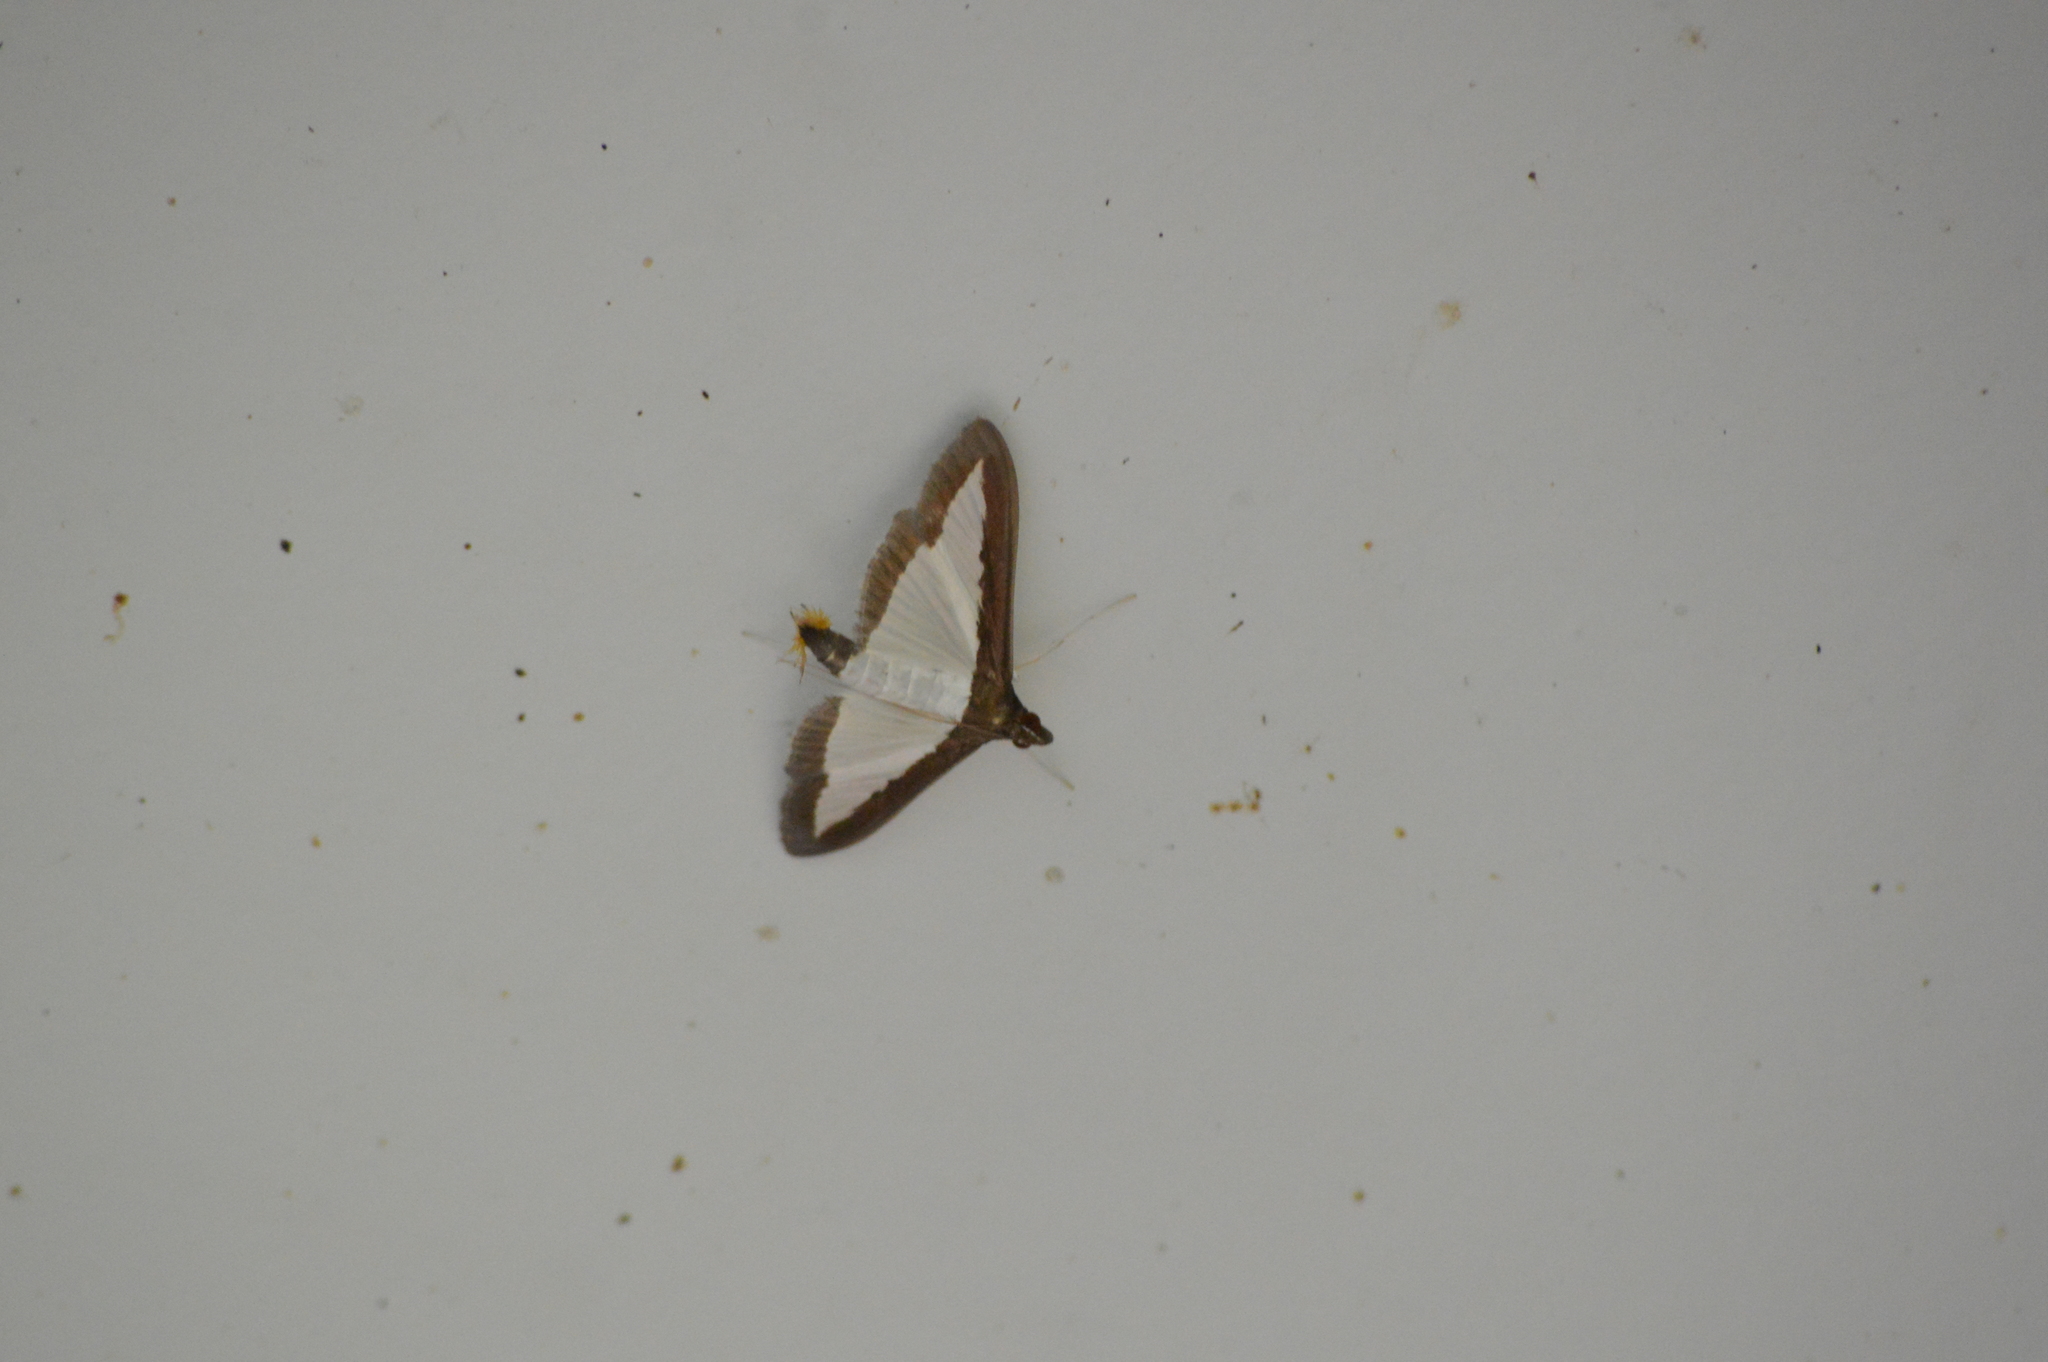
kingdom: Animalia
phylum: Arthropoda
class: Insecta
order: Lepidoptera
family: Crambidae
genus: Diaphania
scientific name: Diaphania hyalinata
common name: Melonworm
